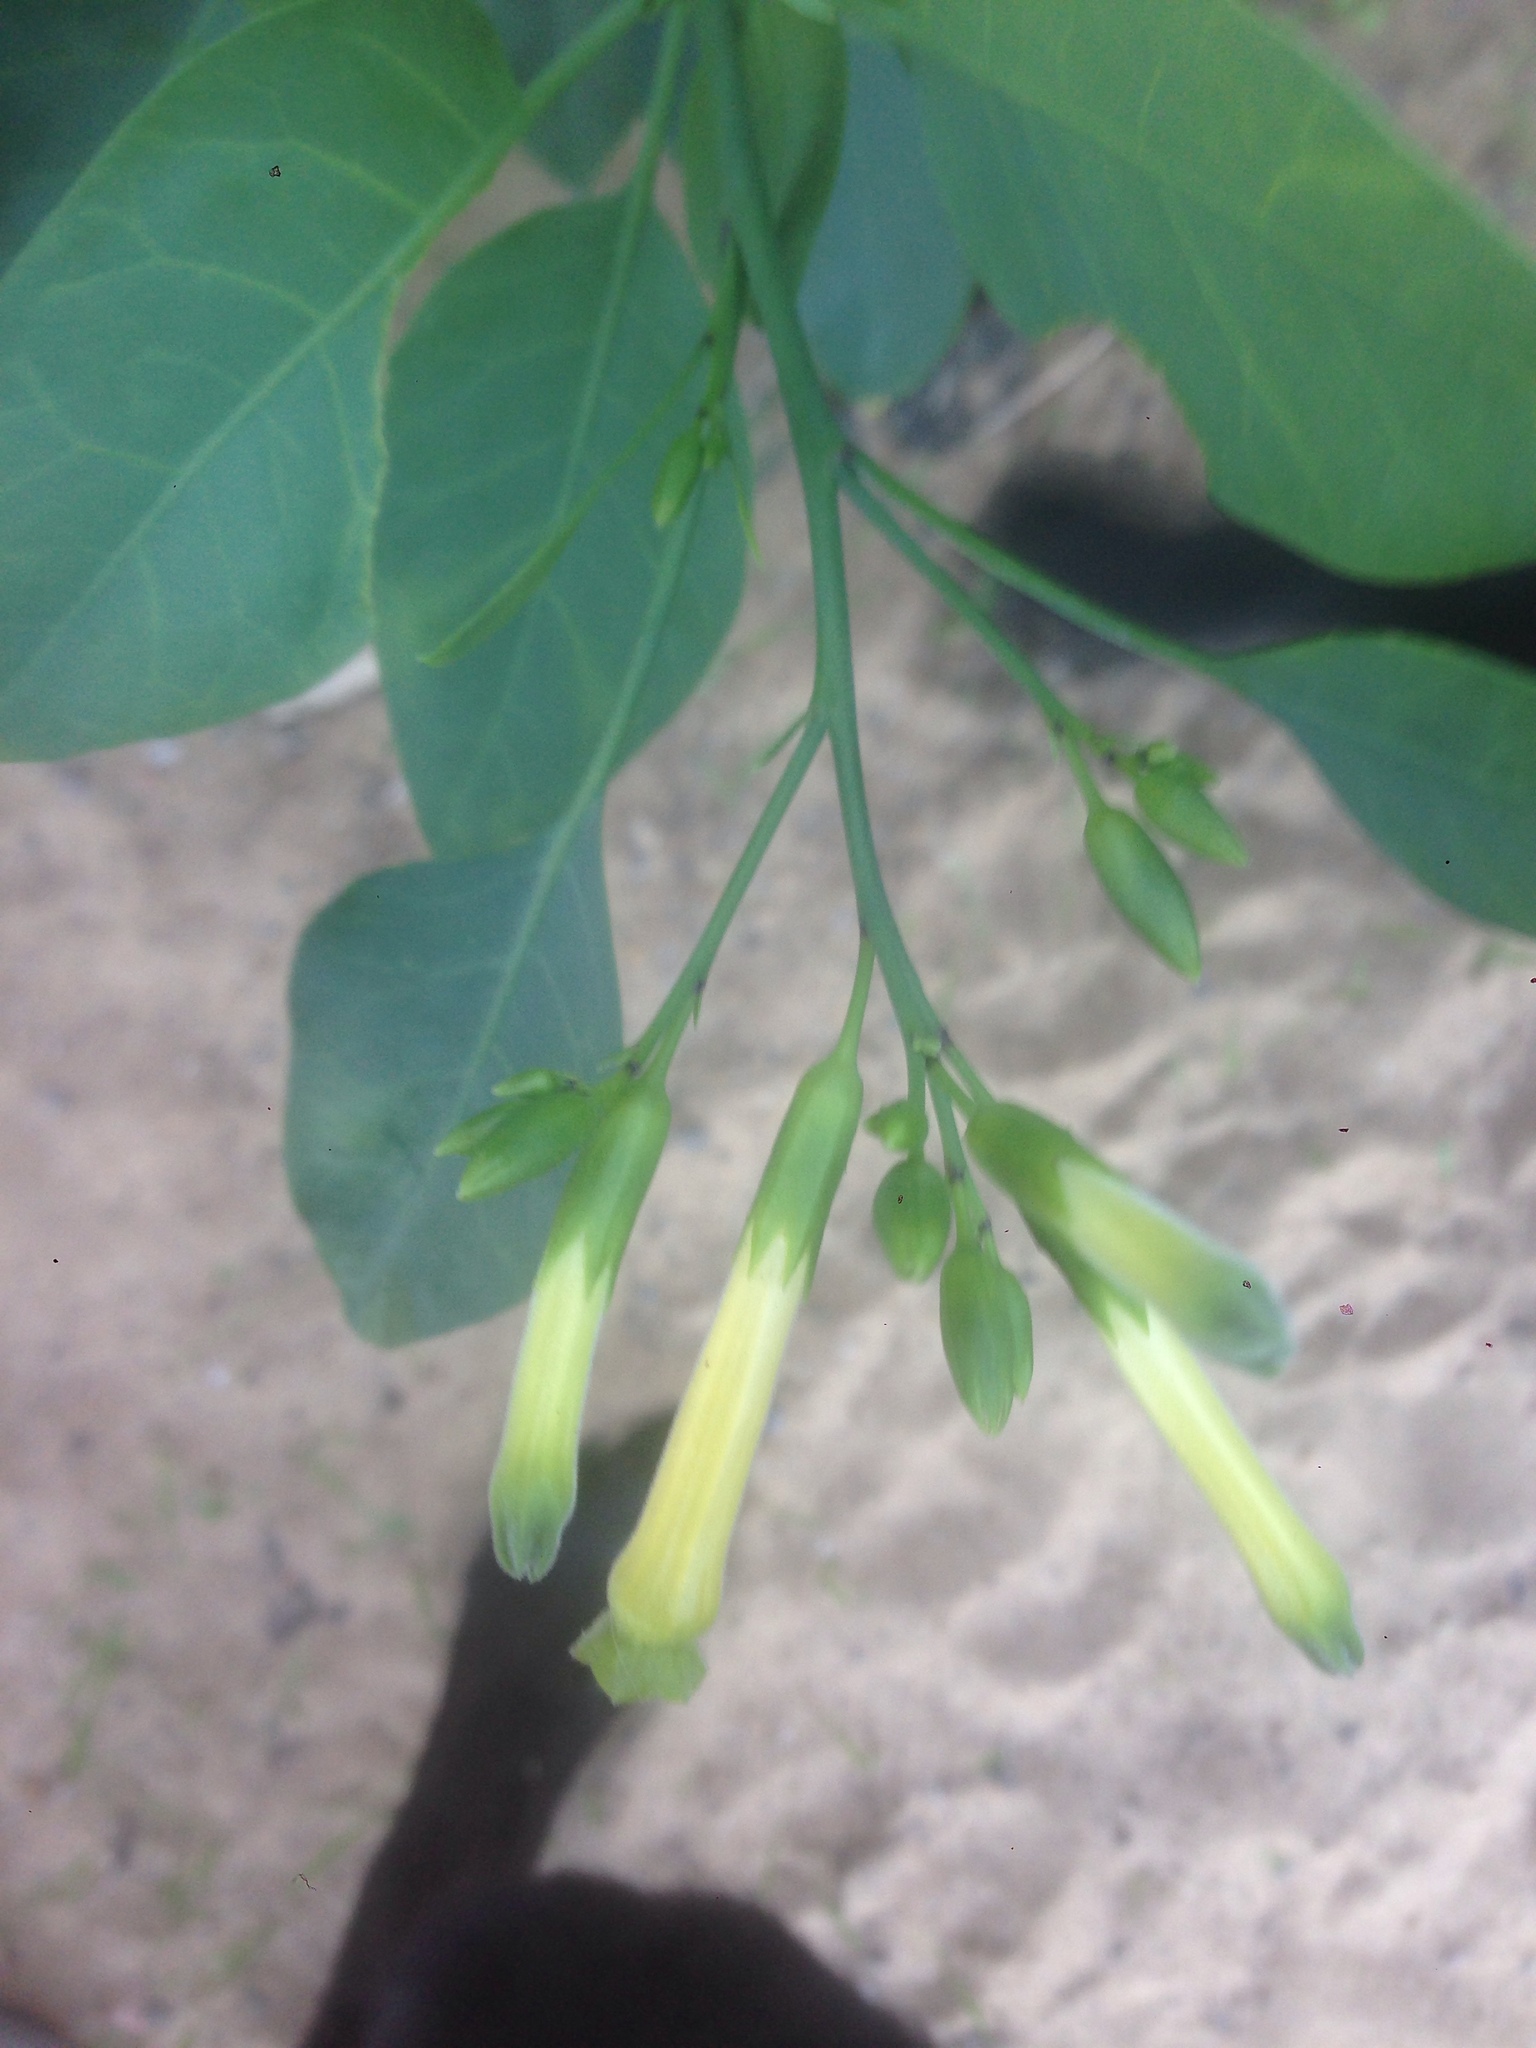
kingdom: Plantae
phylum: Tracheophyta
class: Magnoliopsida
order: Solanales
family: Solanaceae
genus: Nicotiana
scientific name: Nicotiana glauca
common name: Tree tobacco
